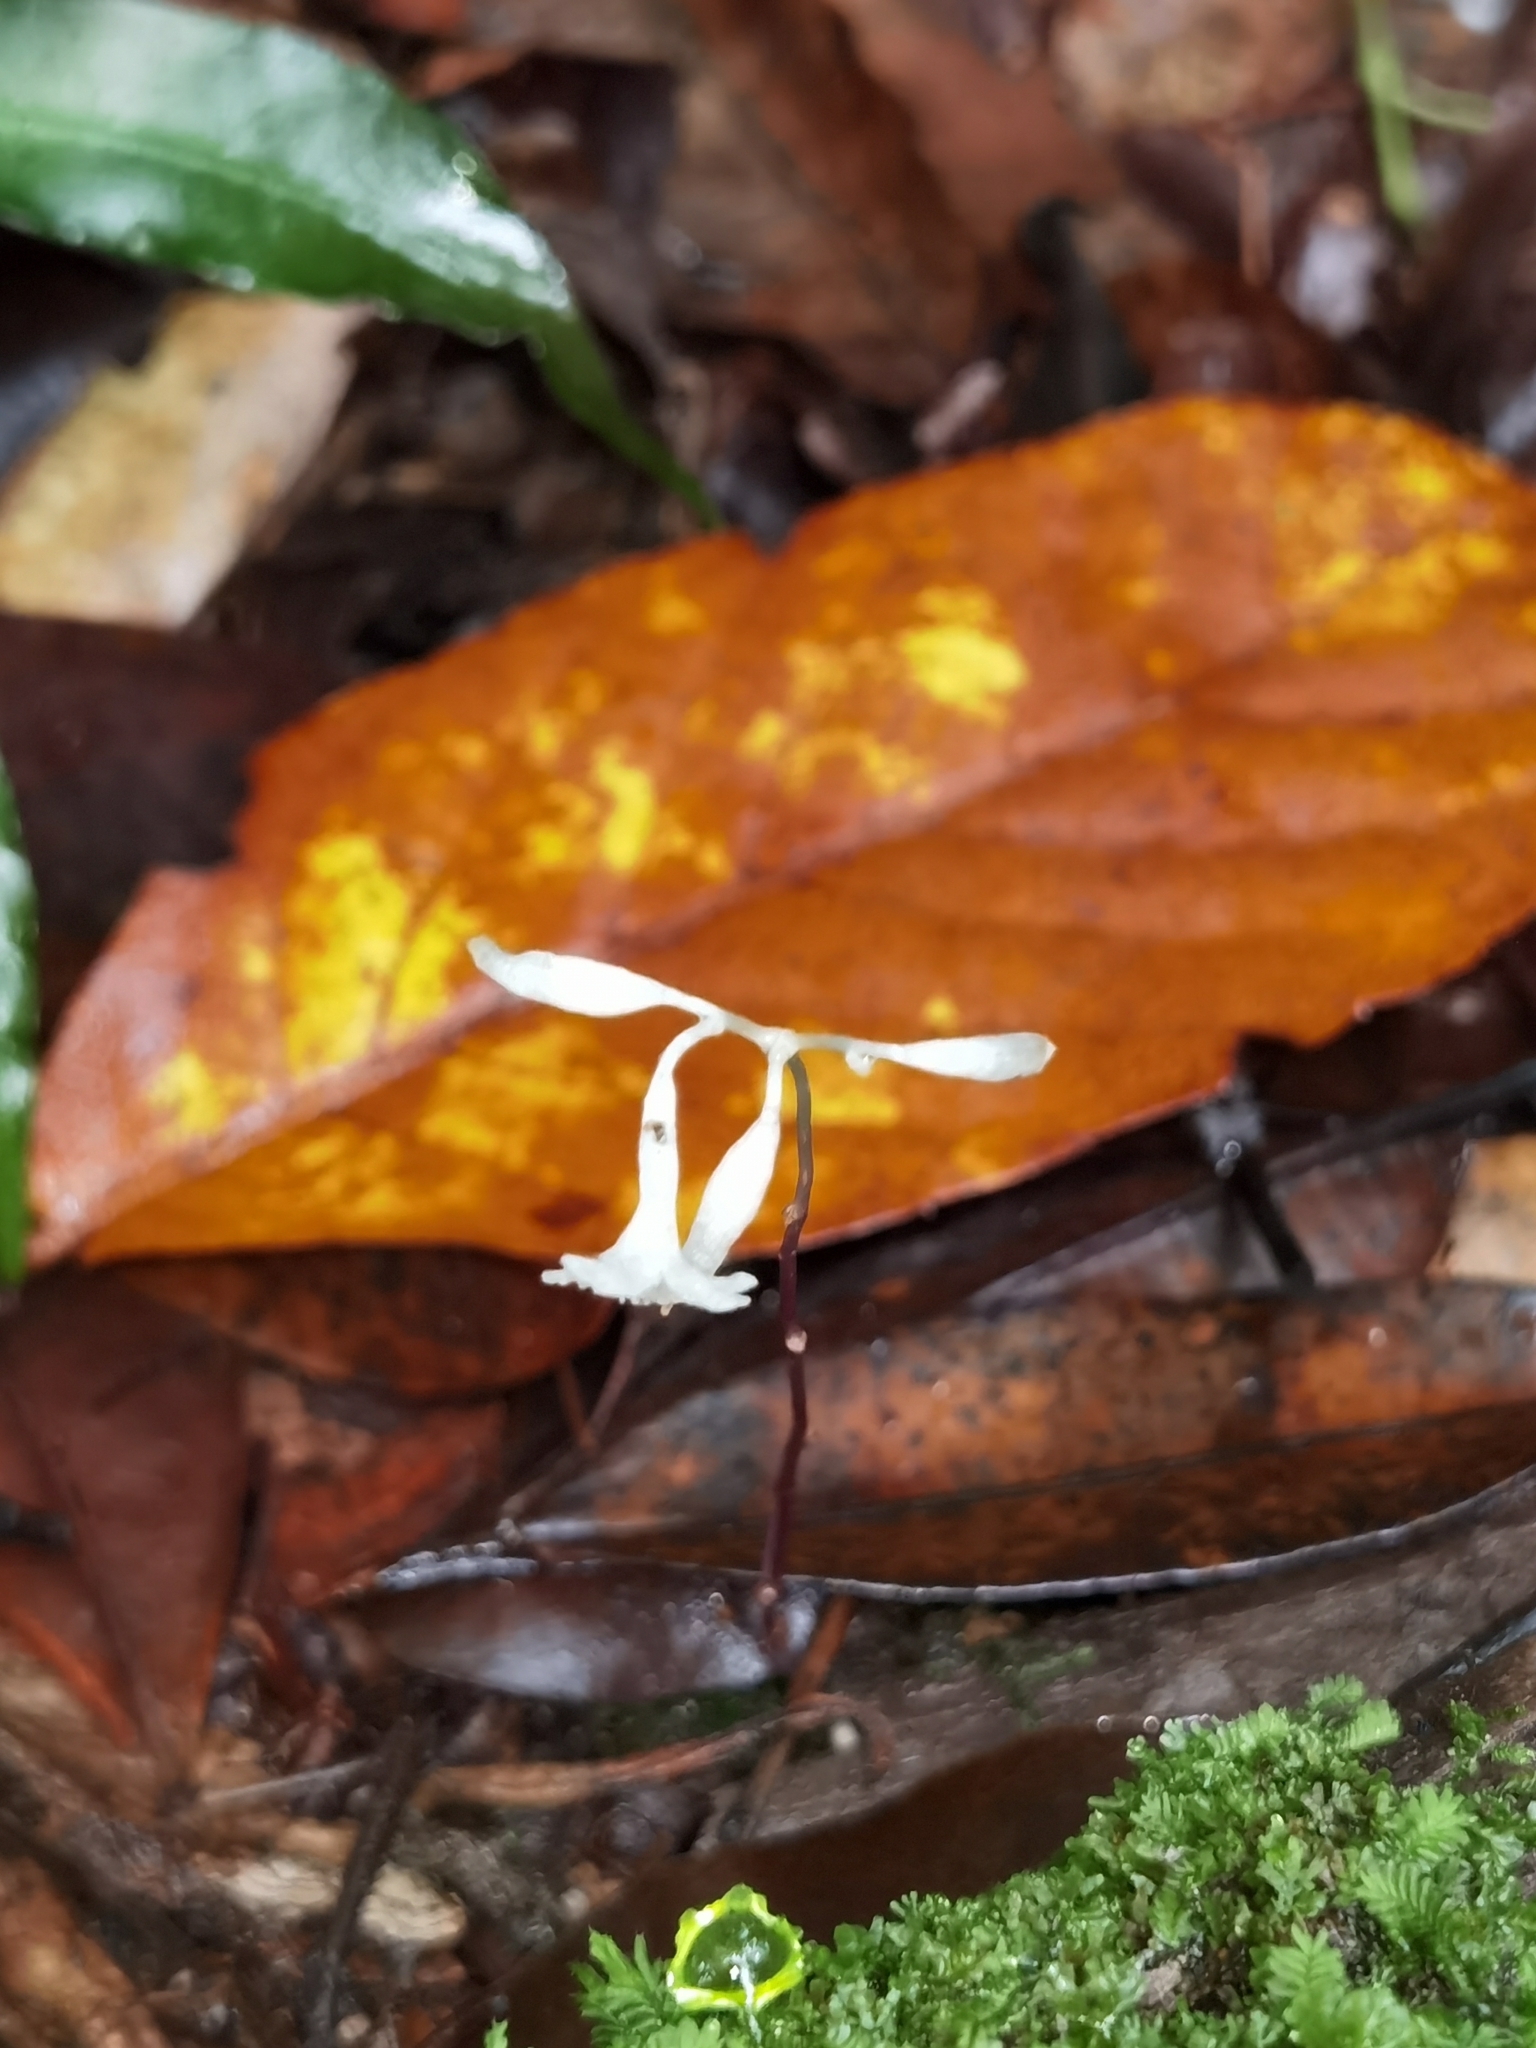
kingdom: Plantae
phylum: Tracheophyta
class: Liliopsida
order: Dioscoreales
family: Burmanniaceae
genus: Gymnosiphon
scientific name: Gymnosiphon suaveolens
